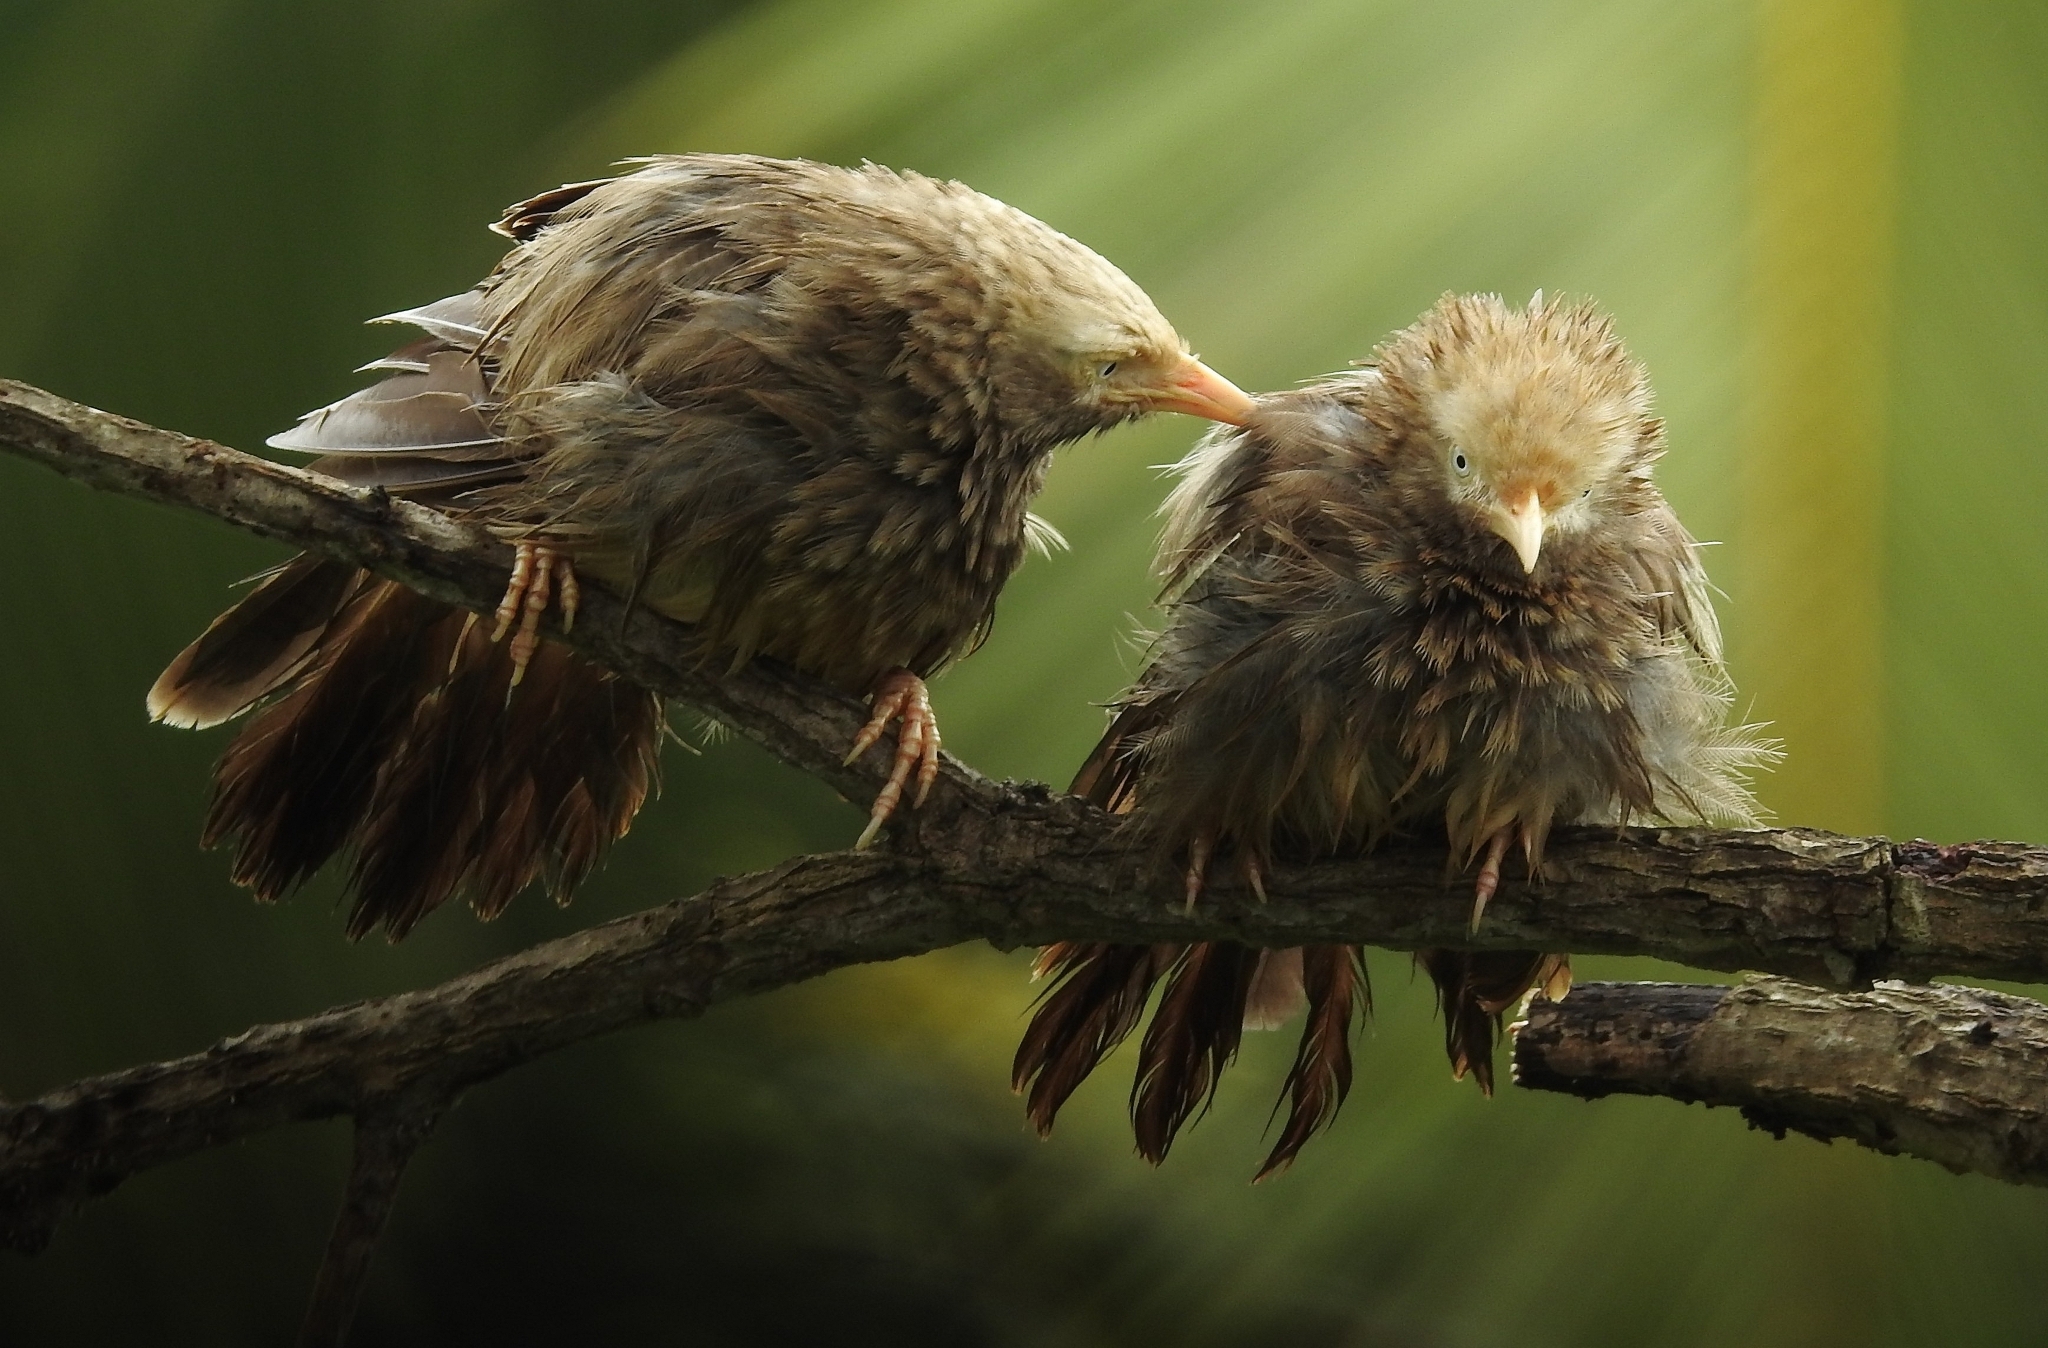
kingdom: Animalia
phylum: Chordata
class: Aves
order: Passeriformes
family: Leiothrichidae
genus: Turdoides
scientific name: Turdoides affinis
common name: Yellow-billed babbler
